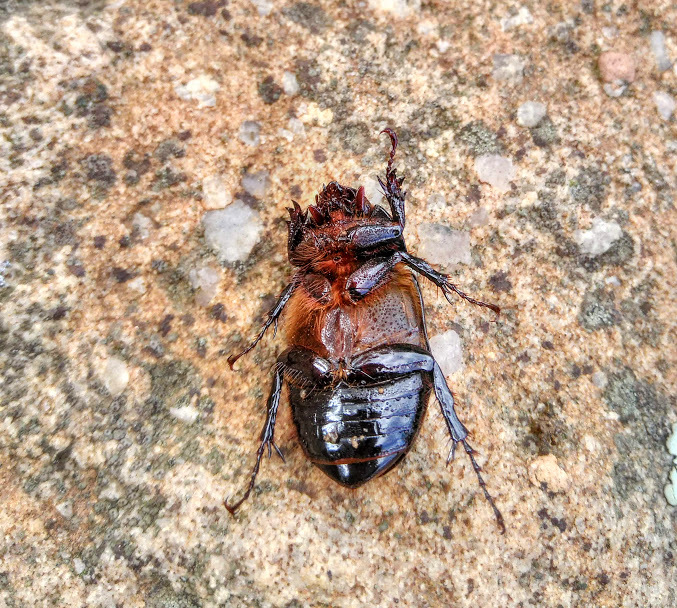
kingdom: Animalia
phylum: Arthropoda
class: Insecta
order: Coleoptera
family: Scarabaeidae
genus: Ancognatha
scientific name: Ancognatha scarabaeoides
